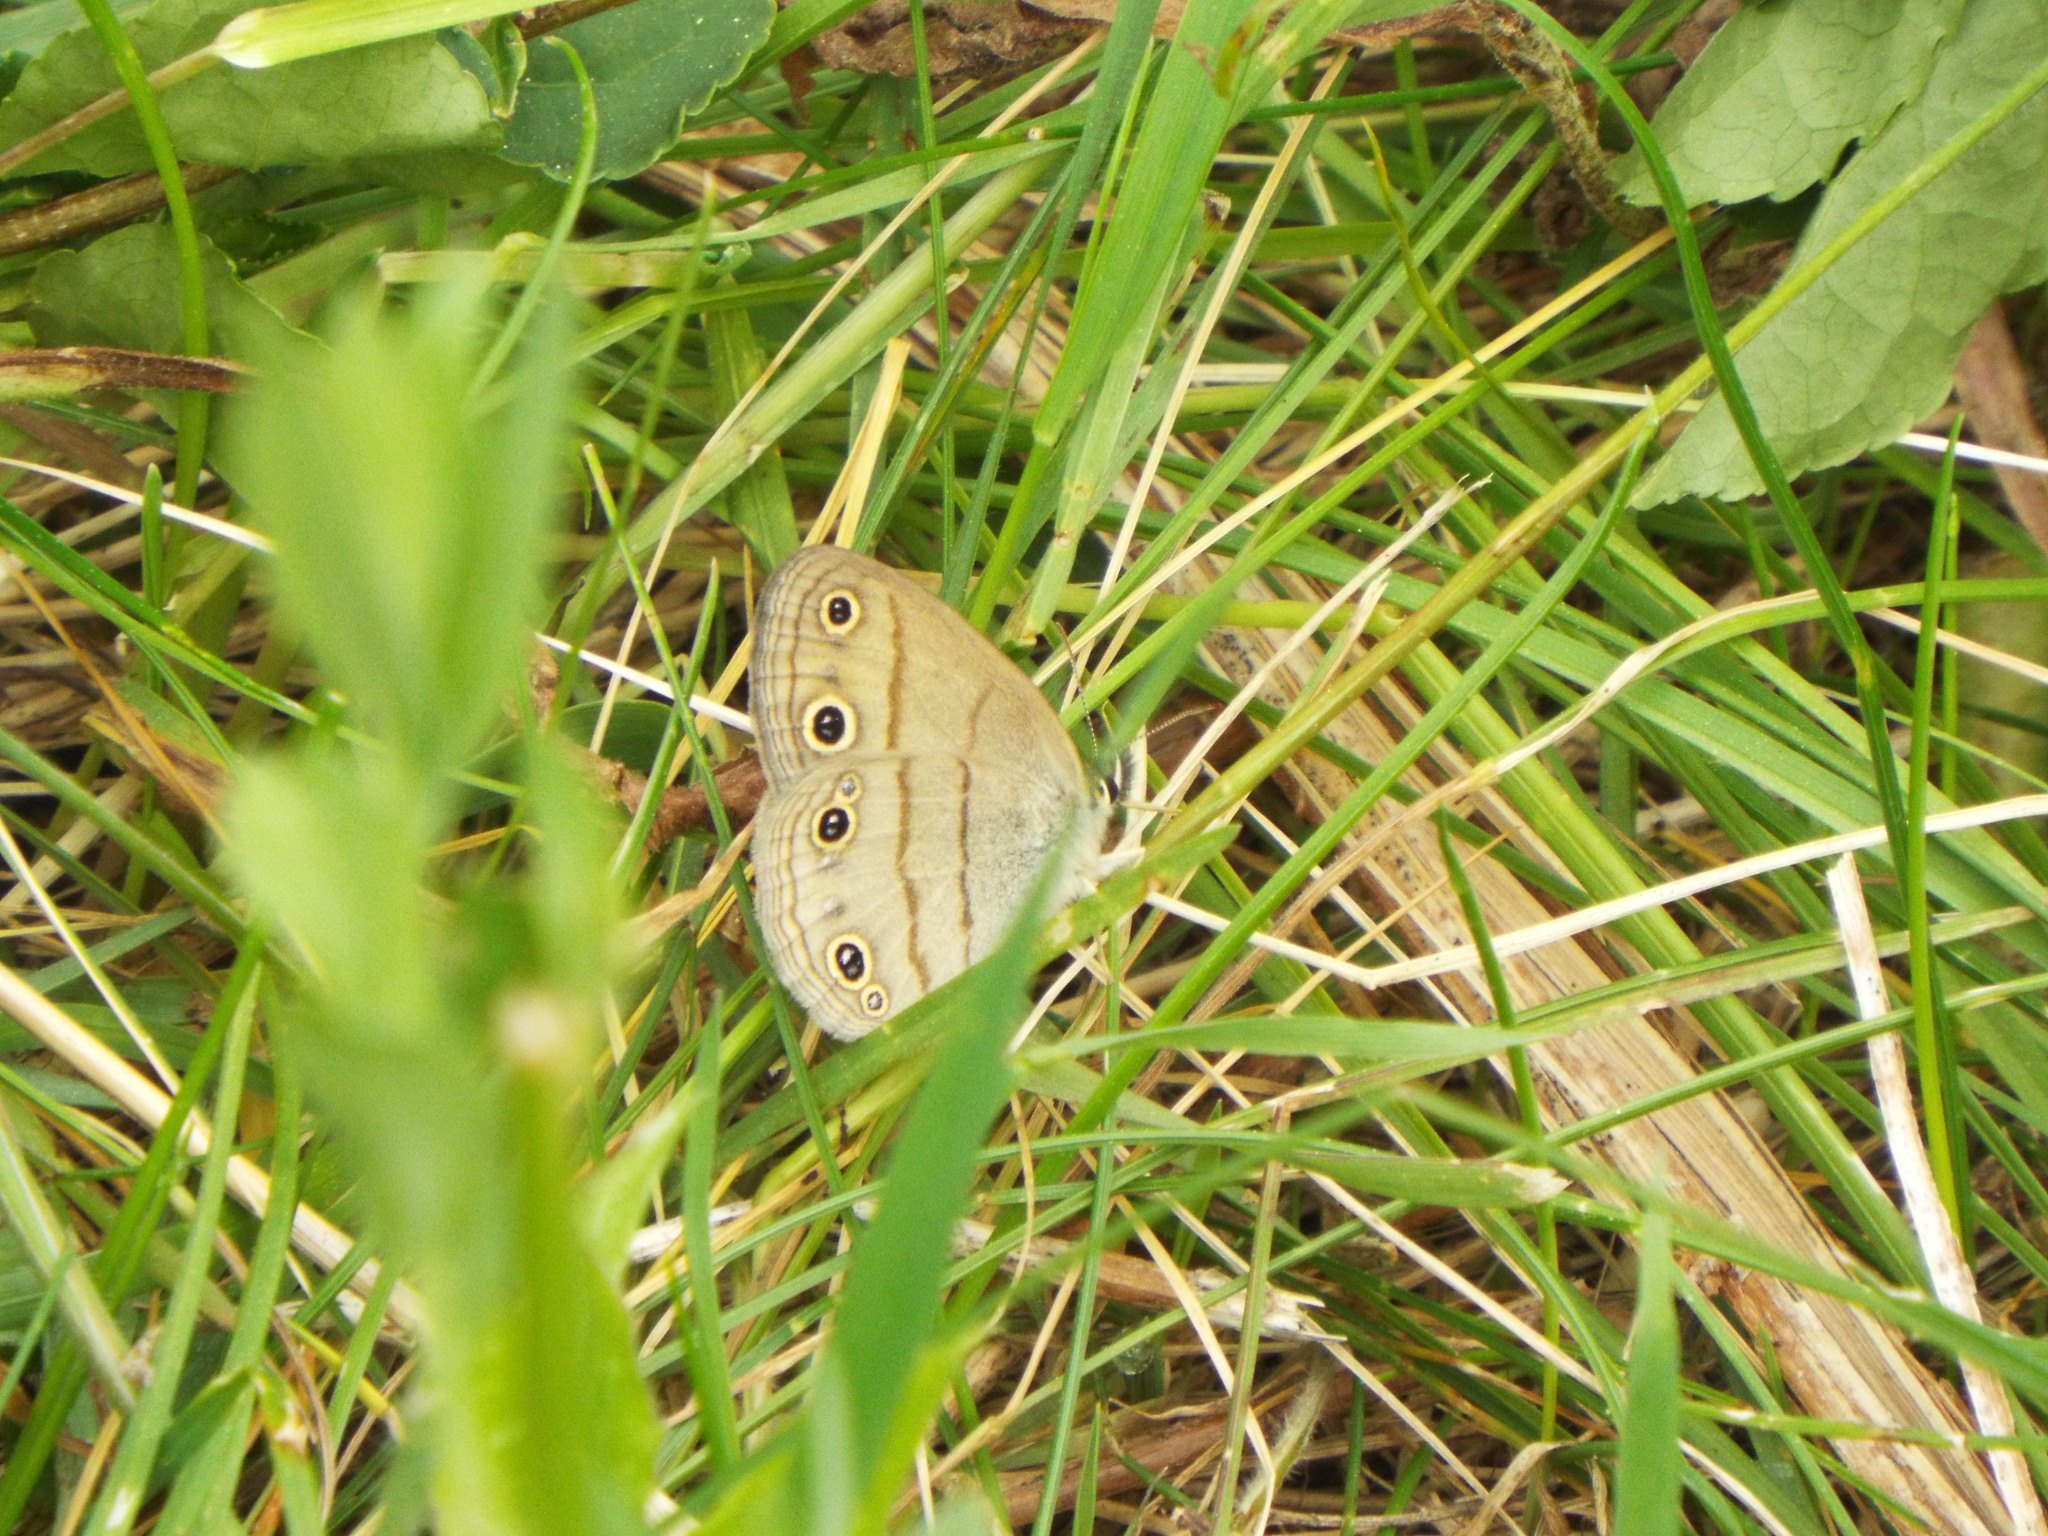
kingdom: Animalia
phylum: Arthropoda
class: Insecta
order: Lepidoptera
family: Nymphalidae
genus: Euptychia
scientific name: Euptychia cymela
